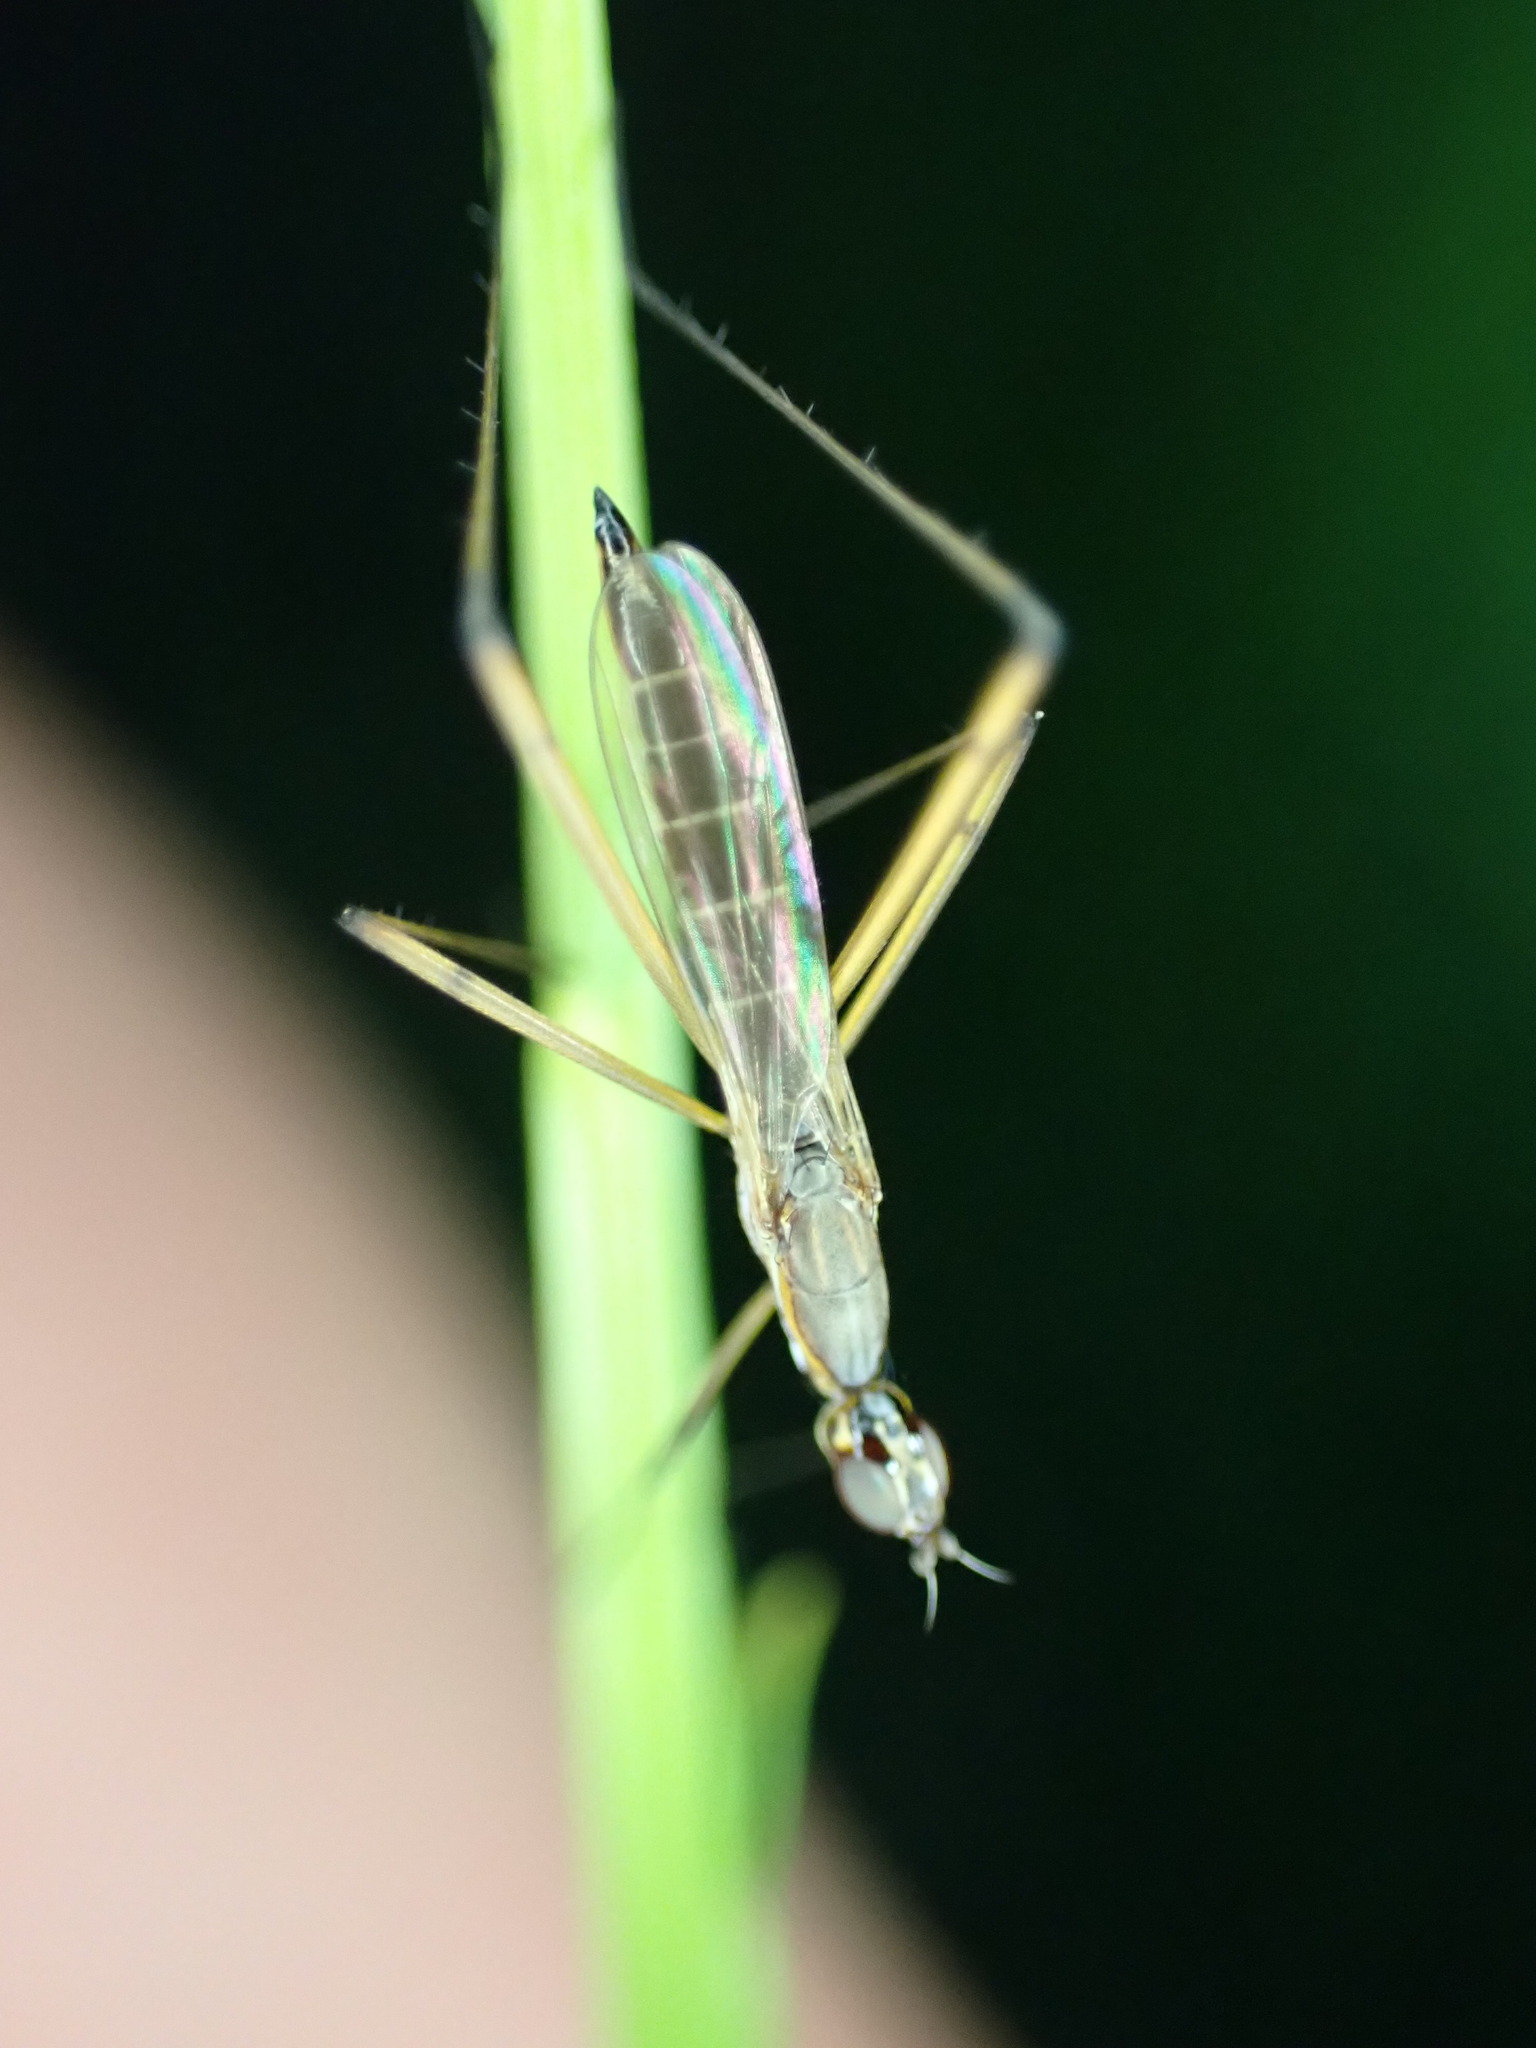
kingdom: Animalia
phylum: Arthropoda
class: Insecta
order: Diptera
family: Micropezidae
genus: Micropeza
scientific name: Micropeza lateralis
